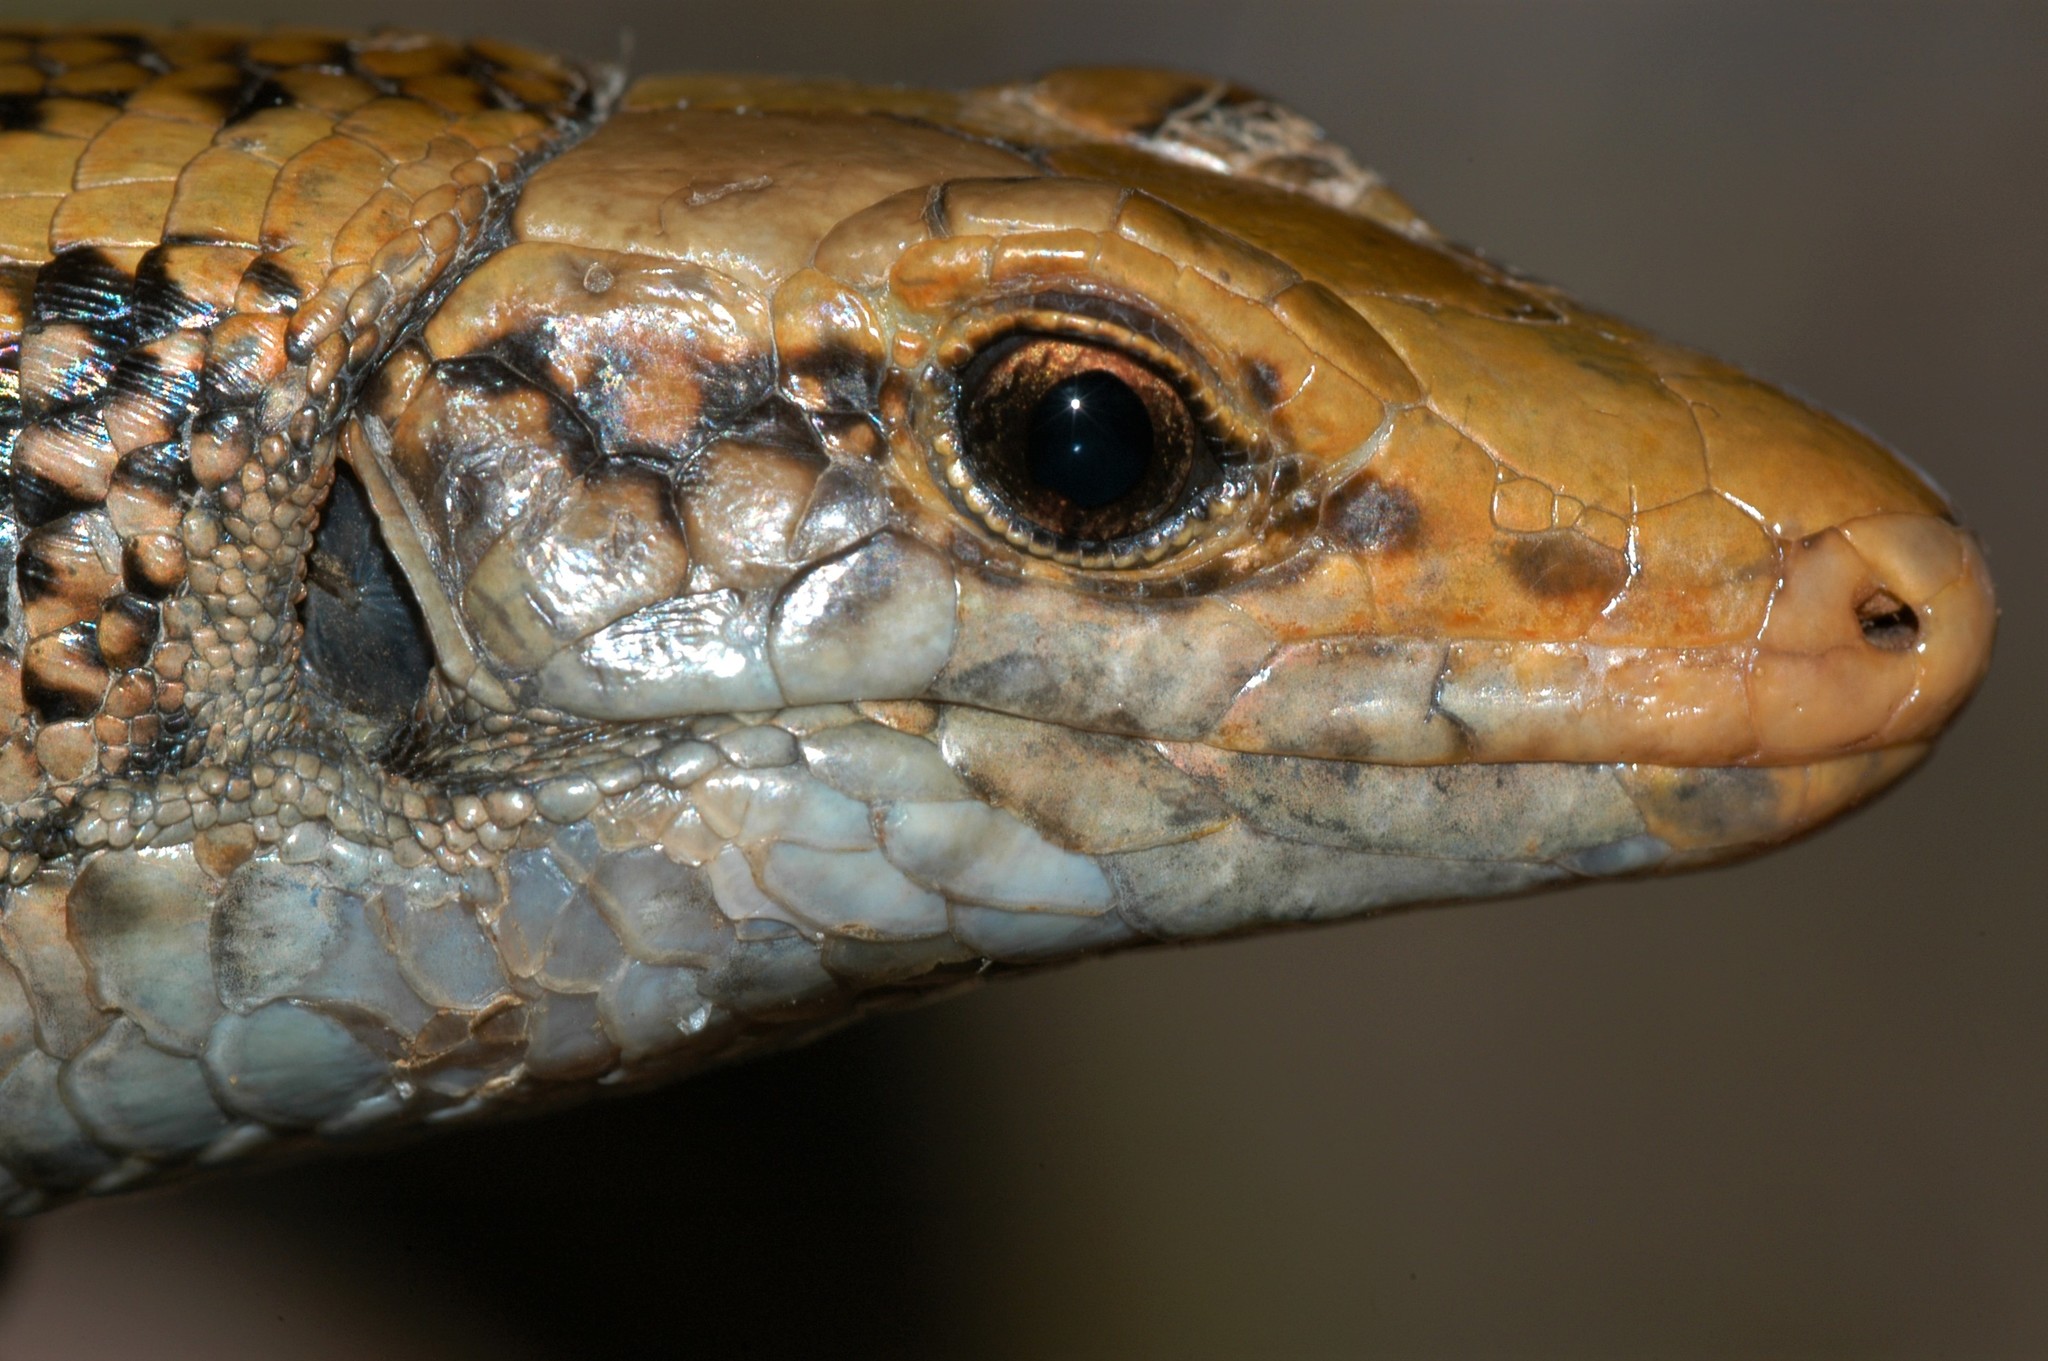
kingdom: Animalia
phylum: Chordata
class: Squamata
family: Gerrhosauridae
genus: Zonosaurus
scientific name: Zonosaurus laticaudatus
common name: Western girdled lizard
